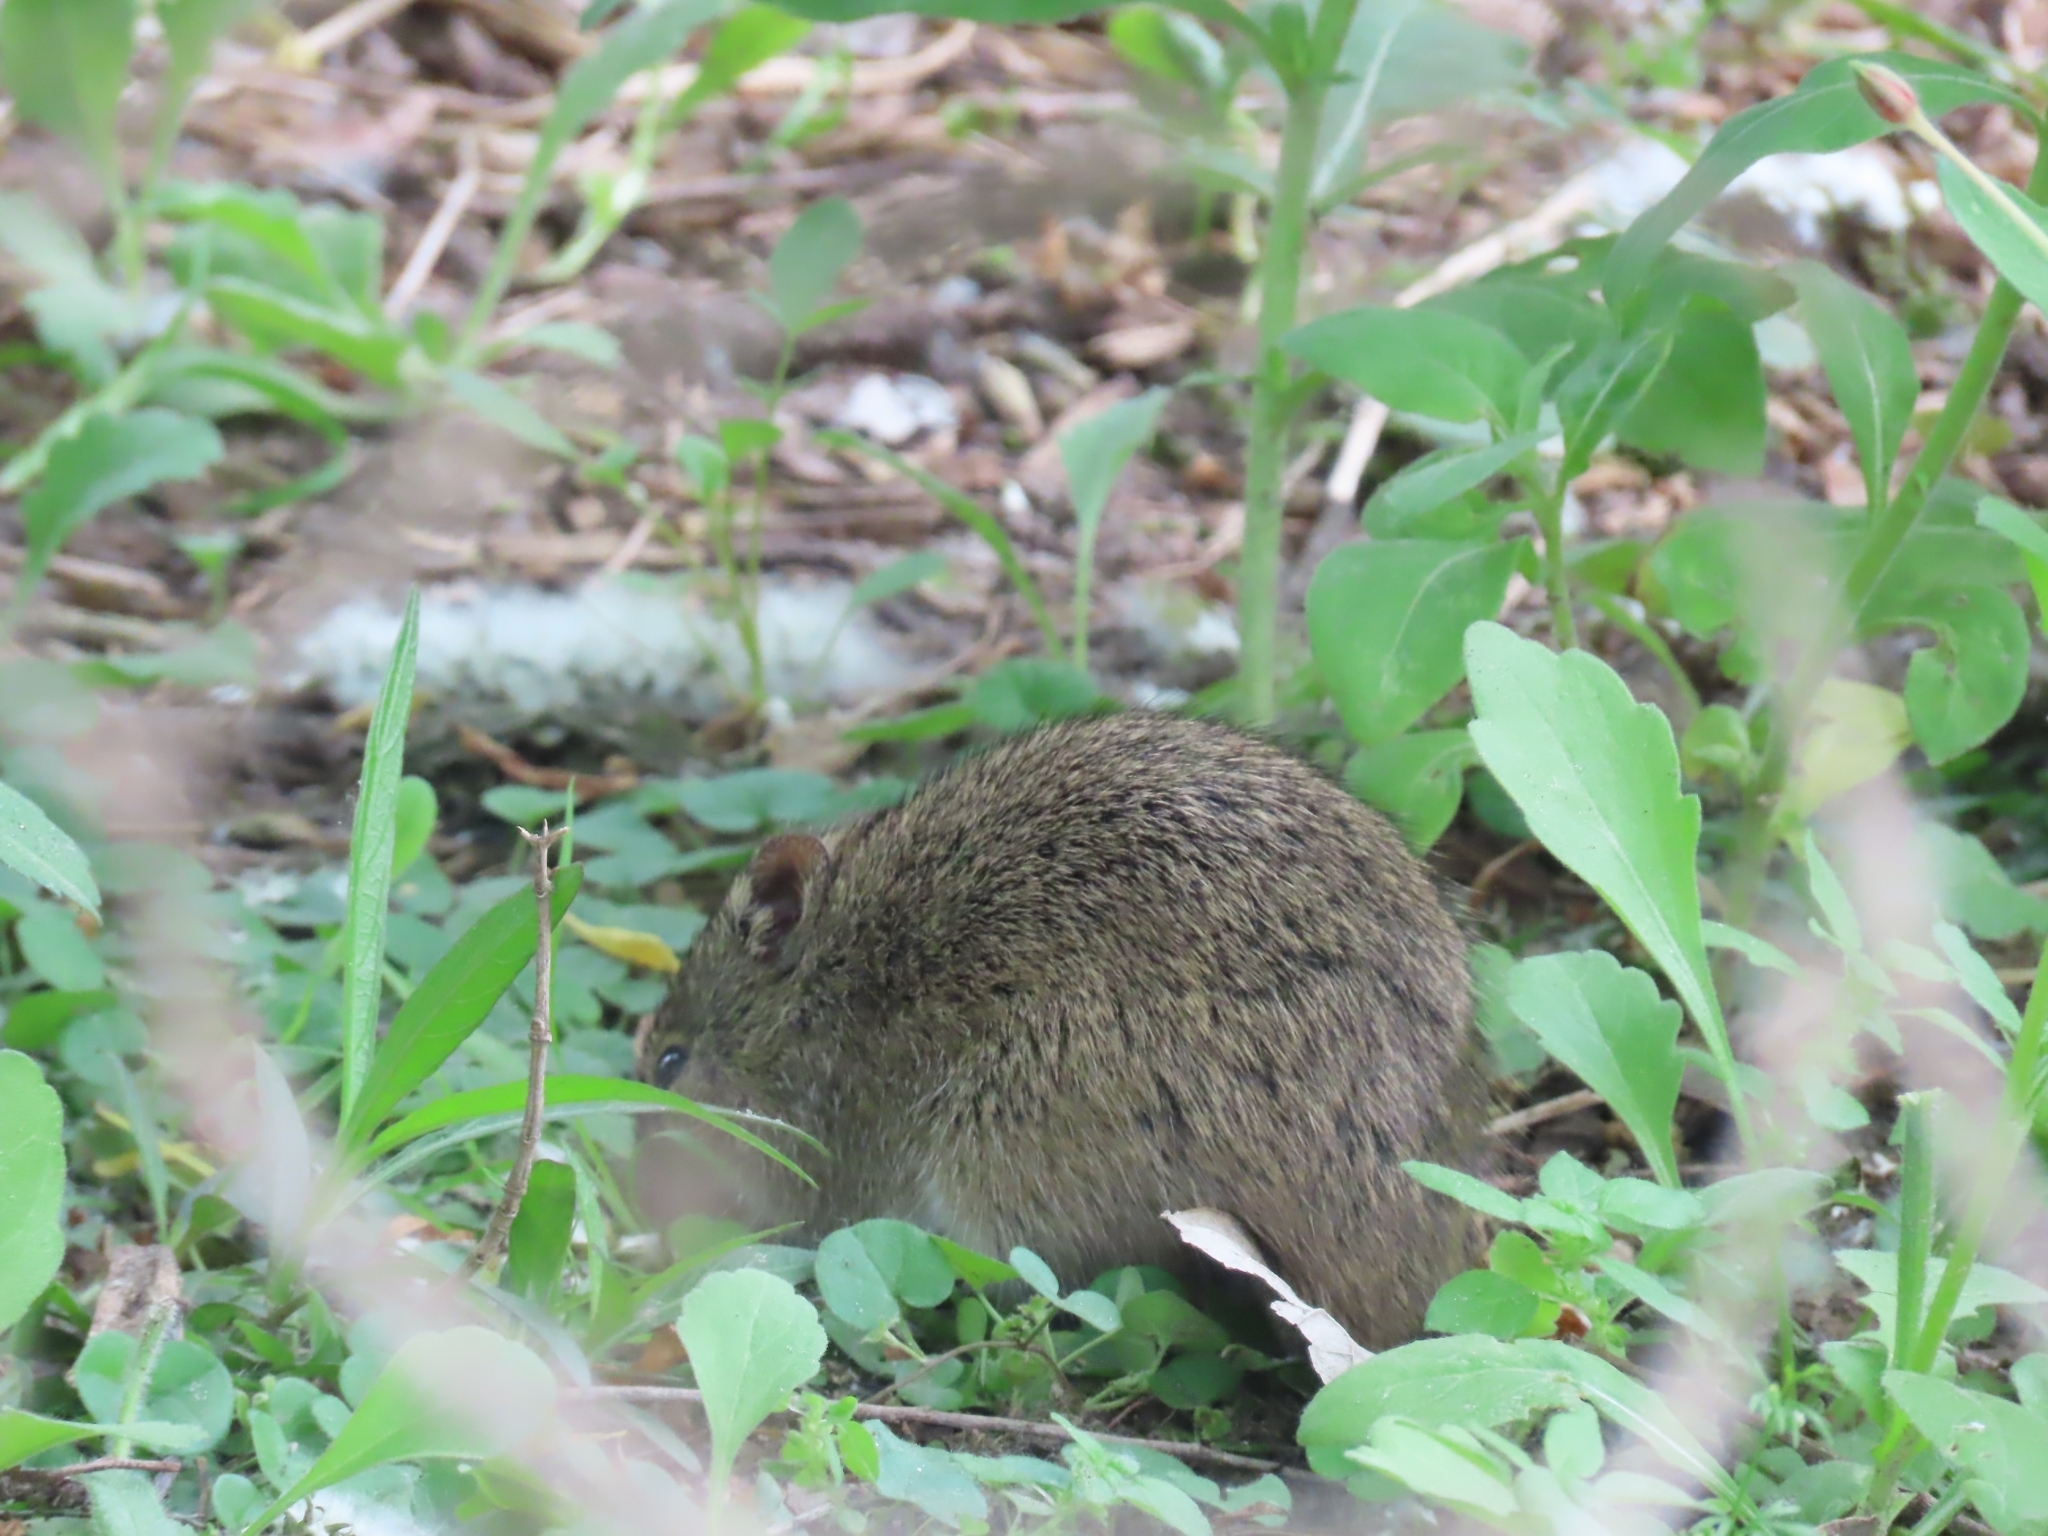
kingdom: Animalia
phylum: Chordata
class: Mammalia
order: Rodentia
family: Cricetidae
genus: Sigmodon
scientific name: Sigmodon hispidus
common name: Hispid cotton rat
